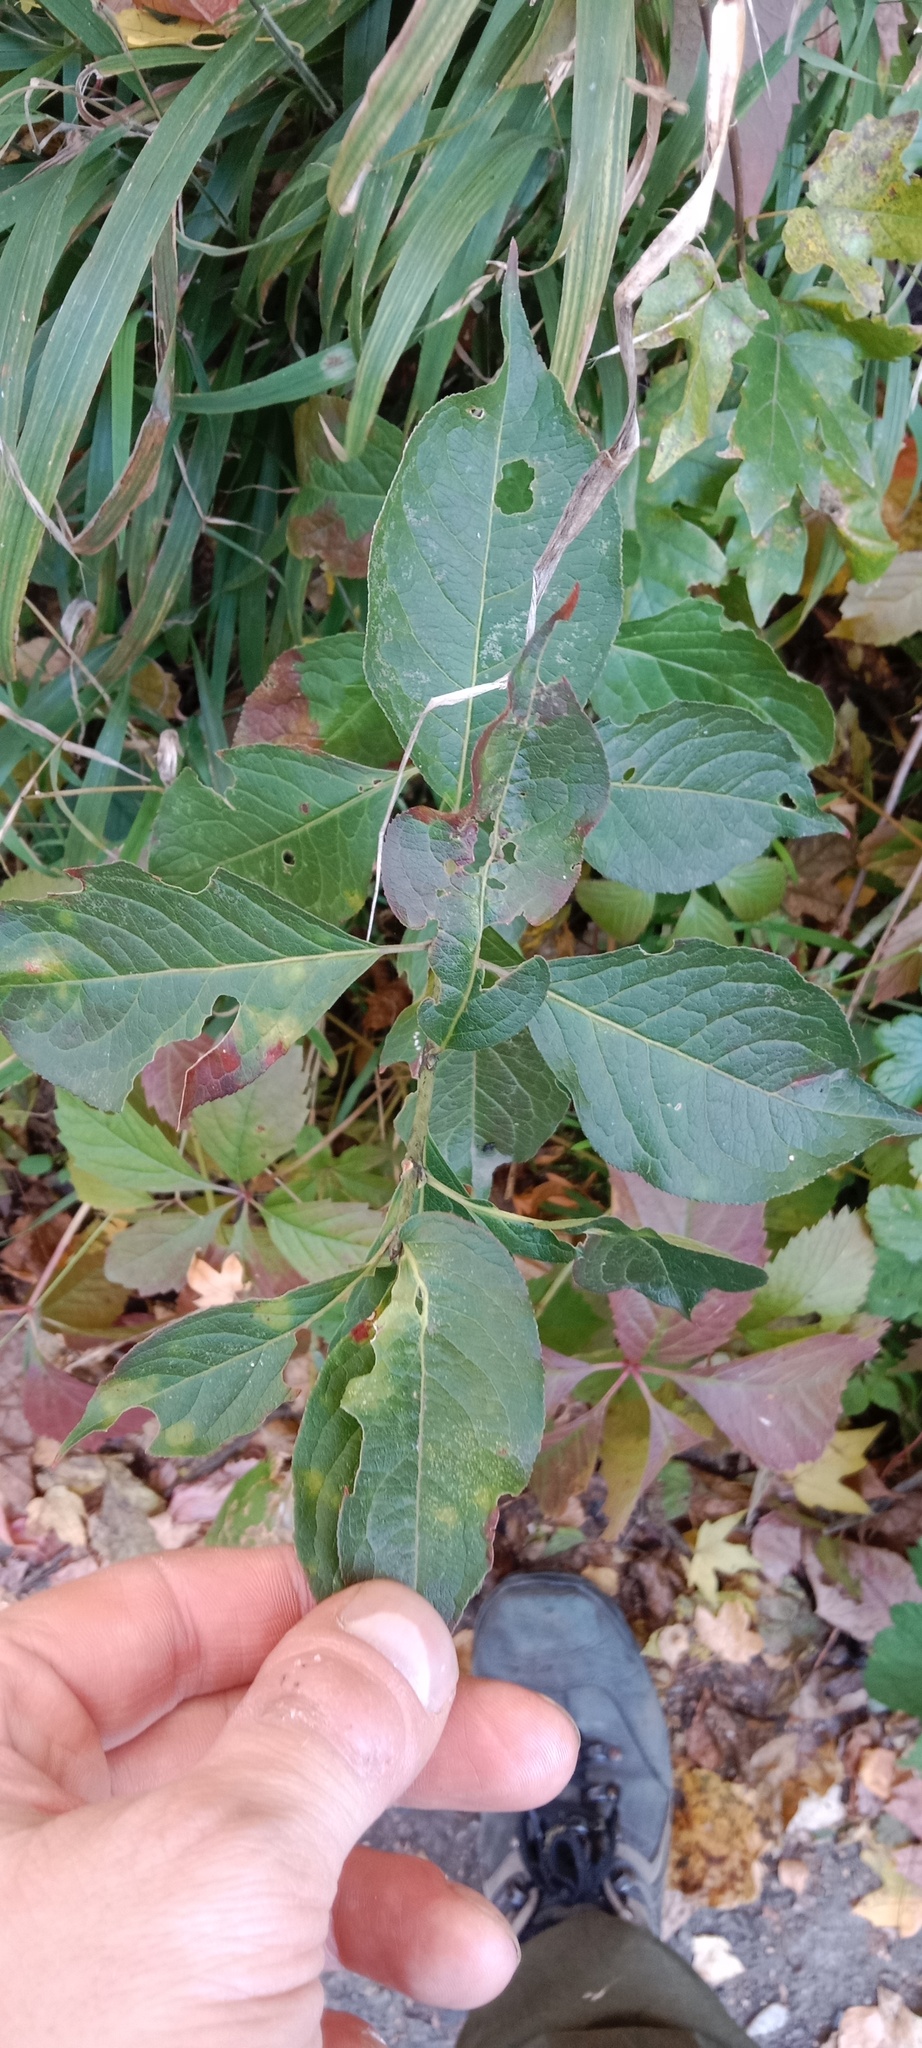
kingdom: Plantae
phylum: Tracheophyta
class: Magnoliopsida
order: Celastrales
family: Celastraceae
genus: Euonymus
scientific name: Euonymus europaeus
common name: Spindle
